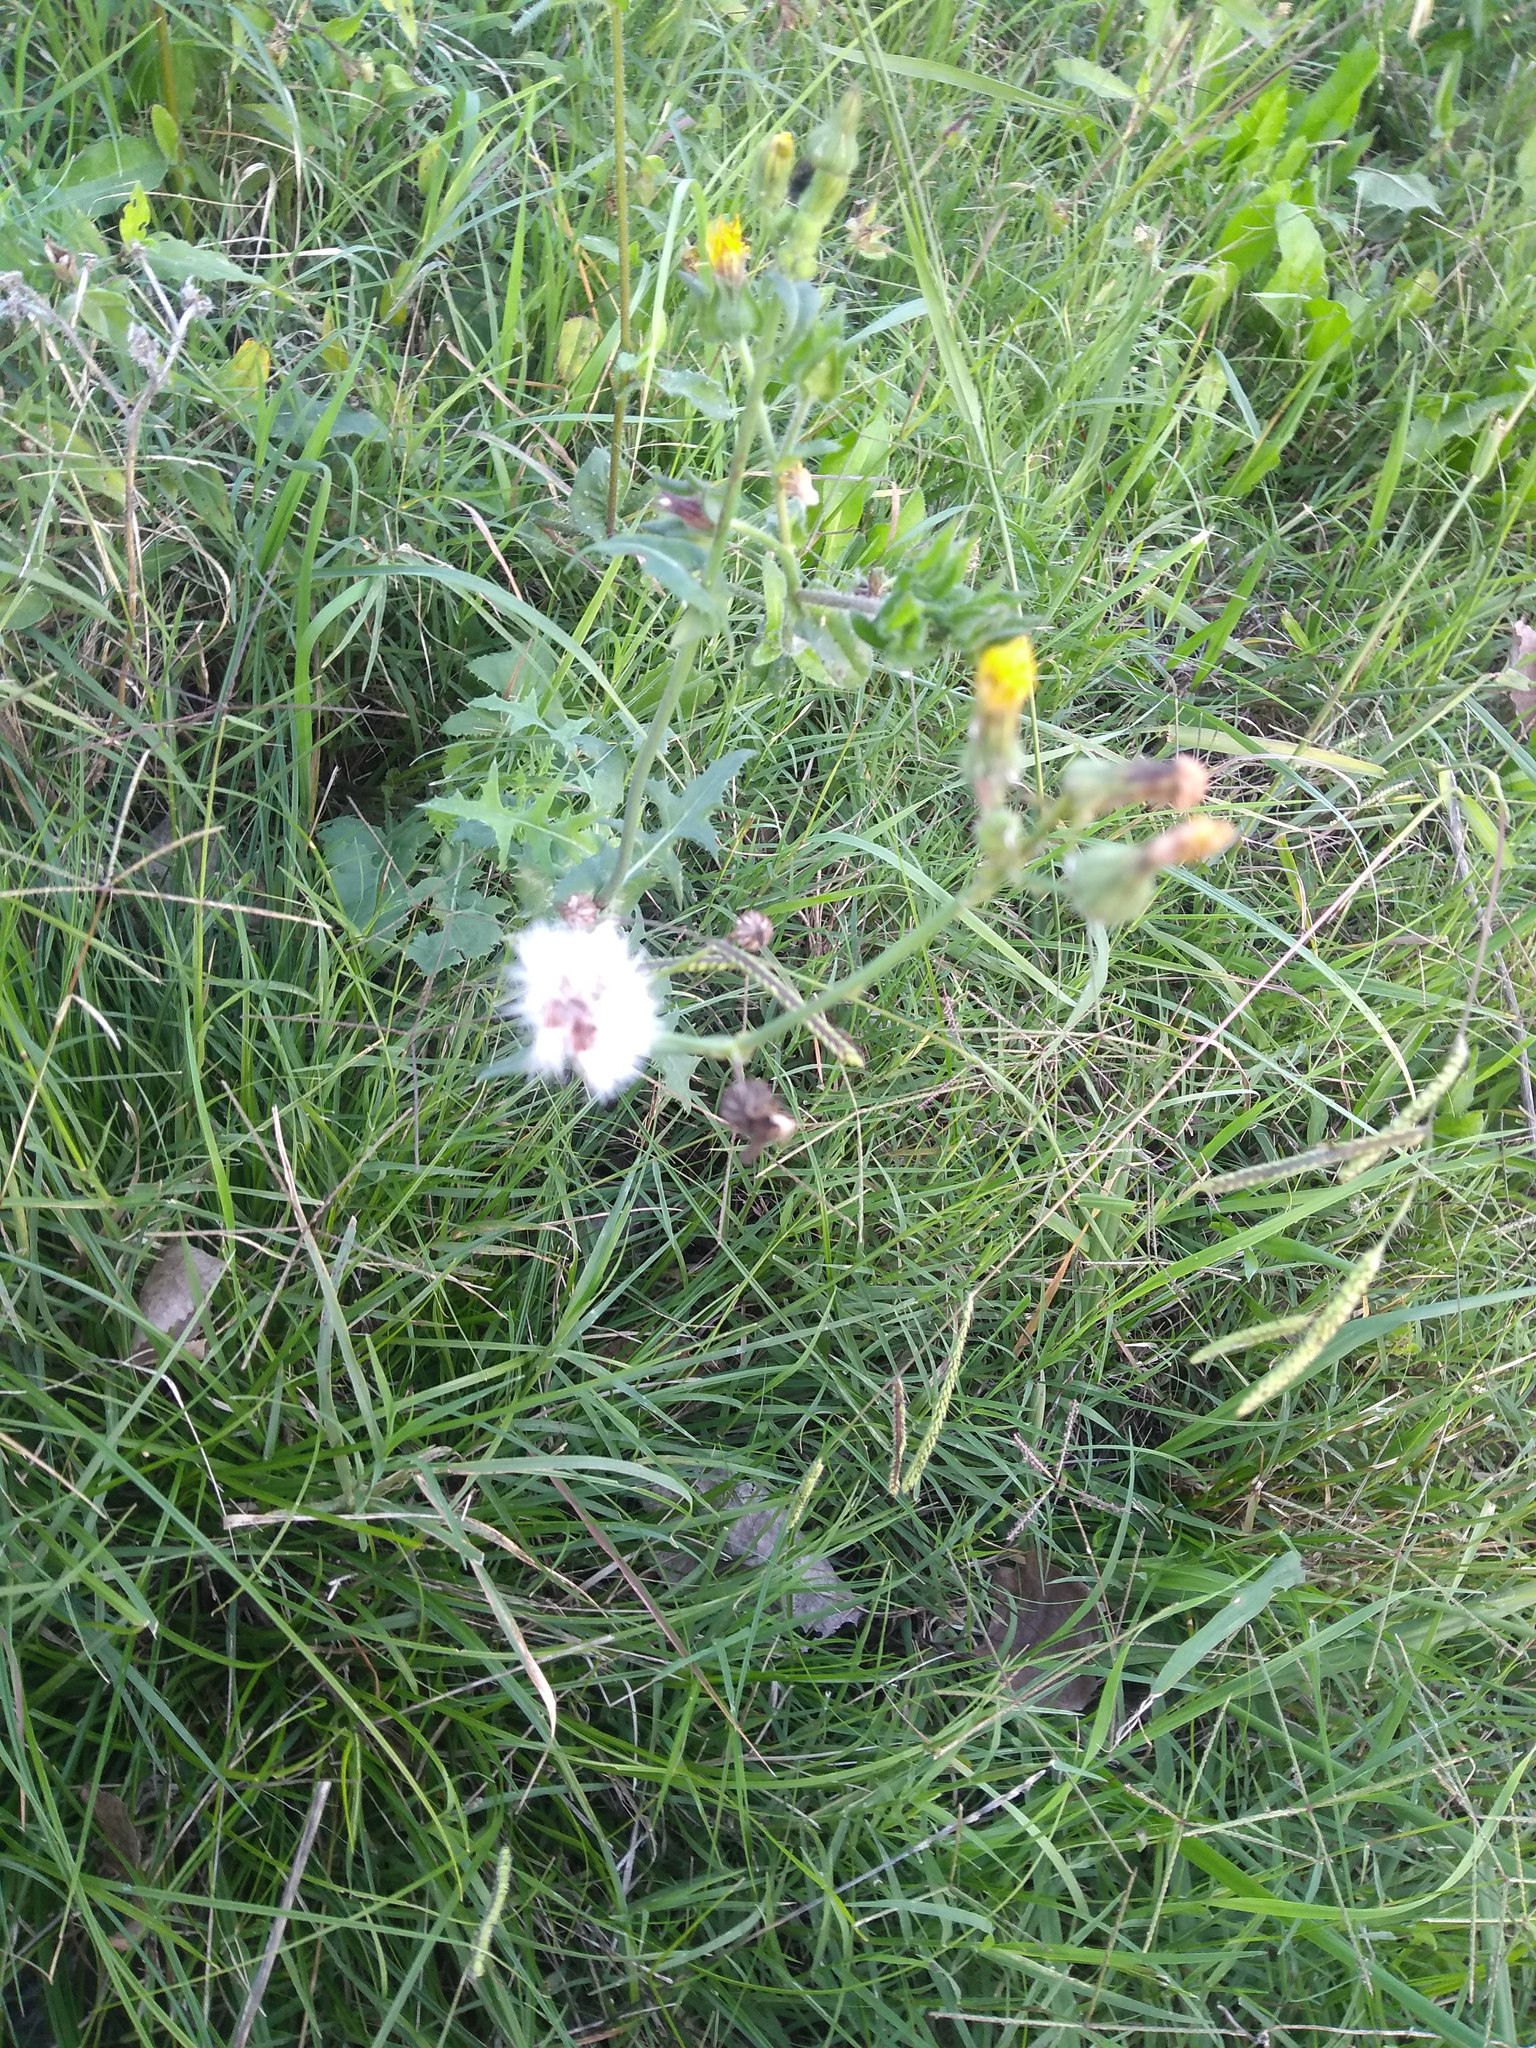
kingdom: Plantae
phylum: Tracheophyta
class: Magnoliopsida
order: Asterales
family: Asteraceae
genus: Sonchus
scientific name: Sonchus oleraceus
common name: Common sowthistle
